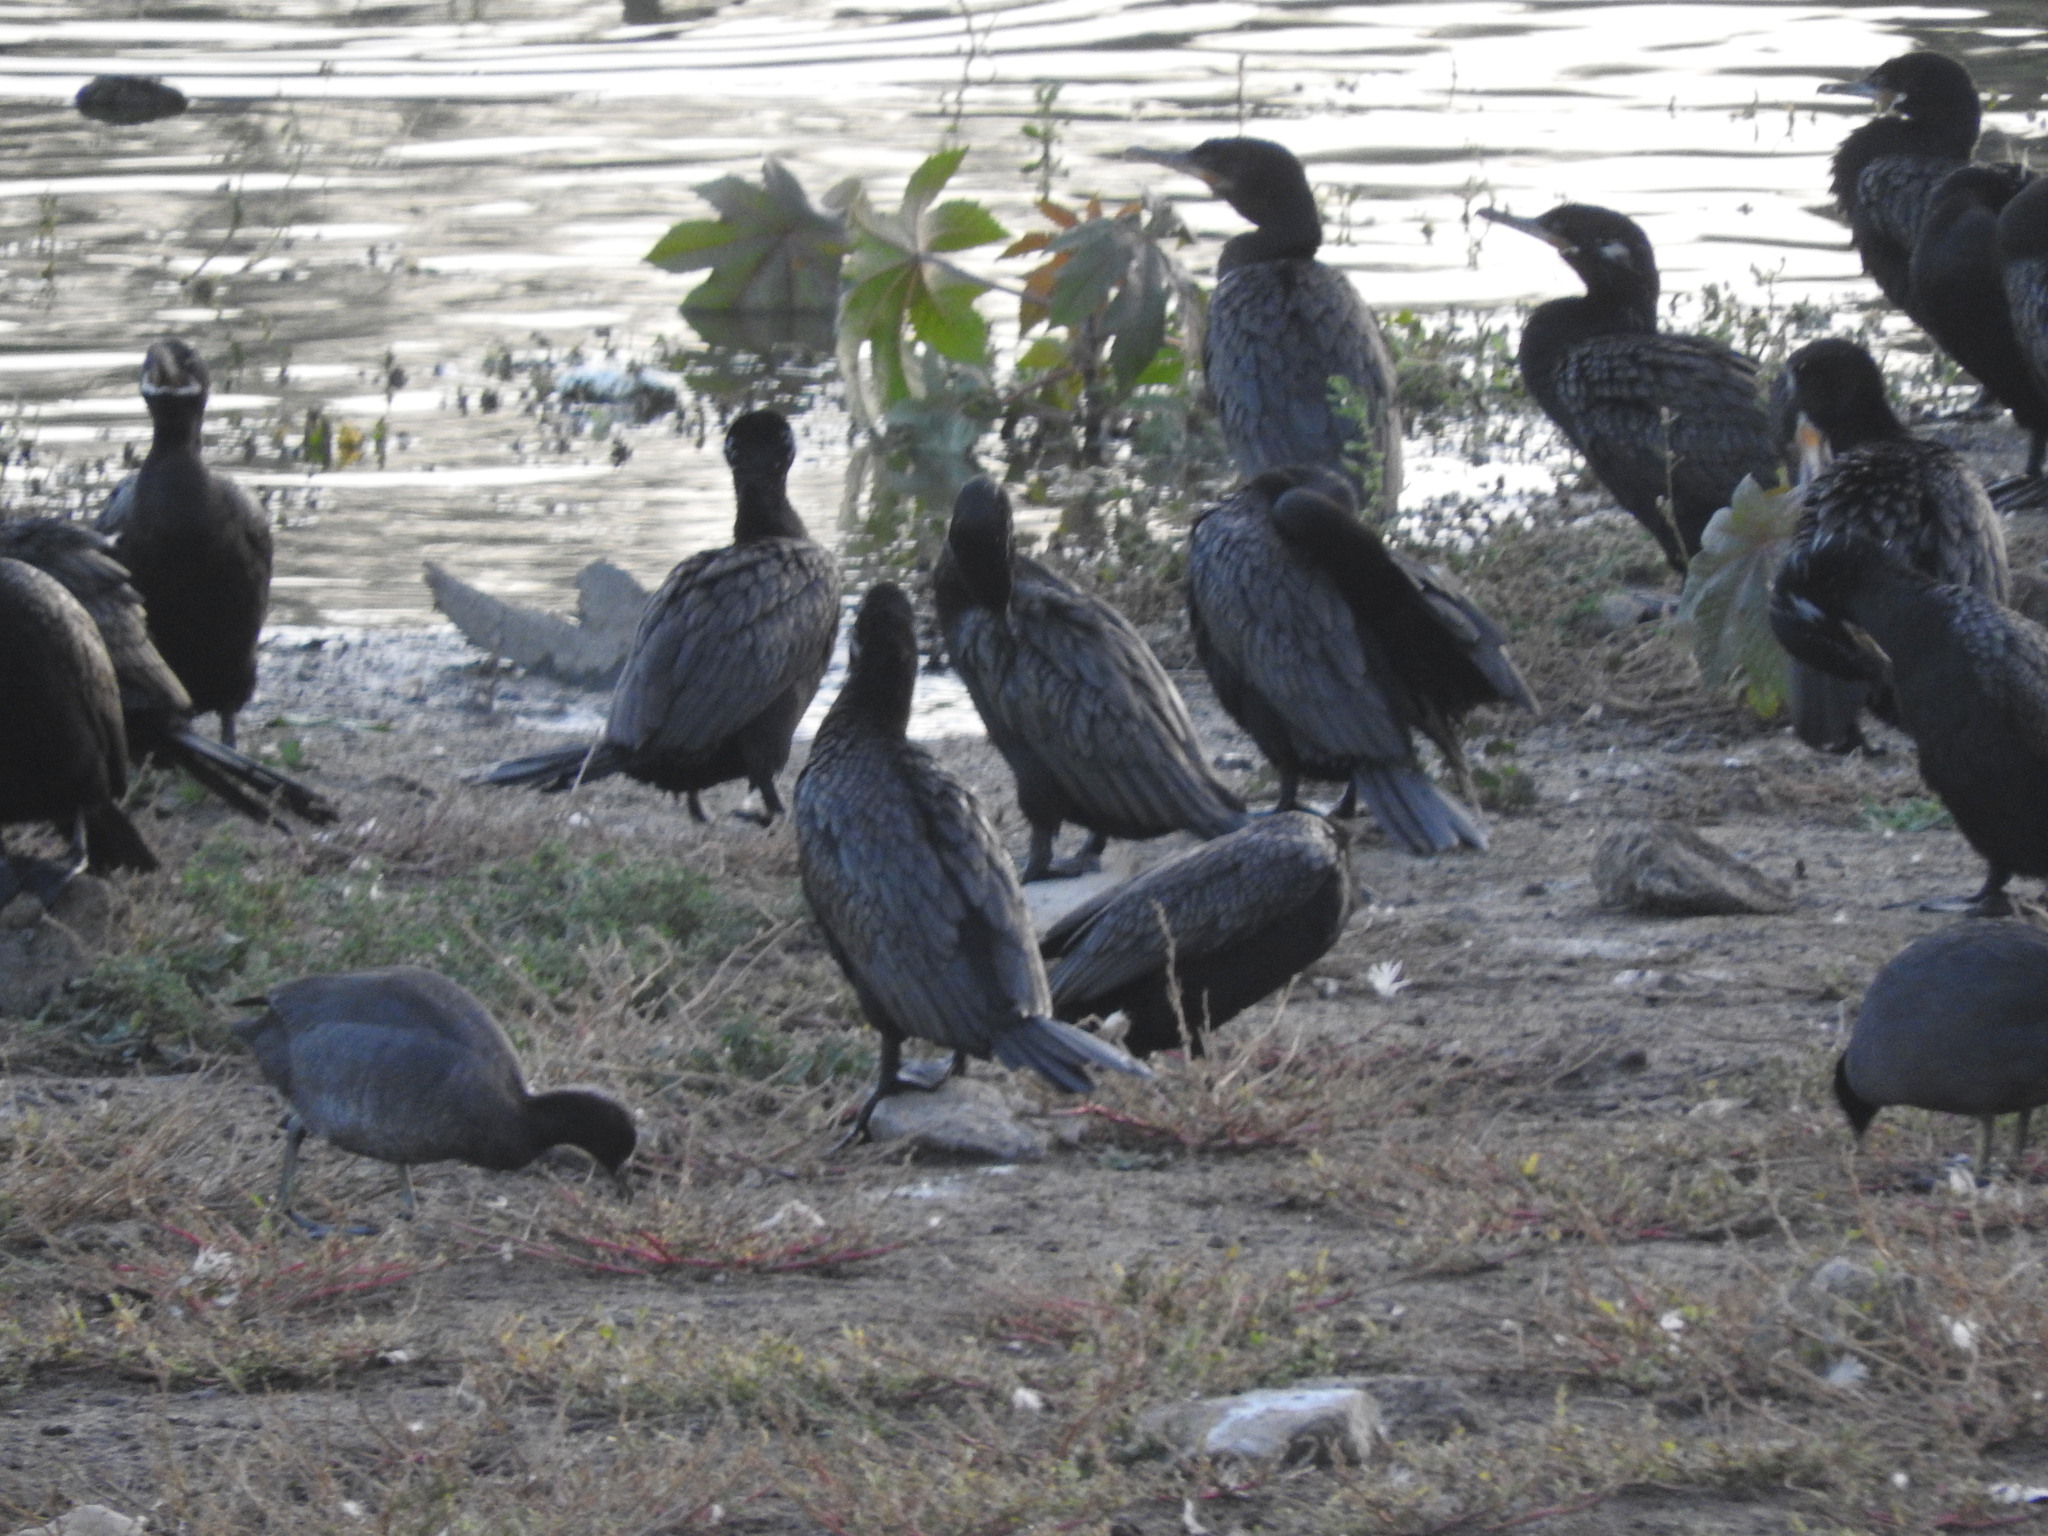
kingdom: Animalia
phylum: Chordata
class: Aves
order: Suliformes
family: Phalacrocoracidae
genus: Phalacrocorax
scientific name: Phalacrocorax brasilianus
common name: Neotropic cormorant
